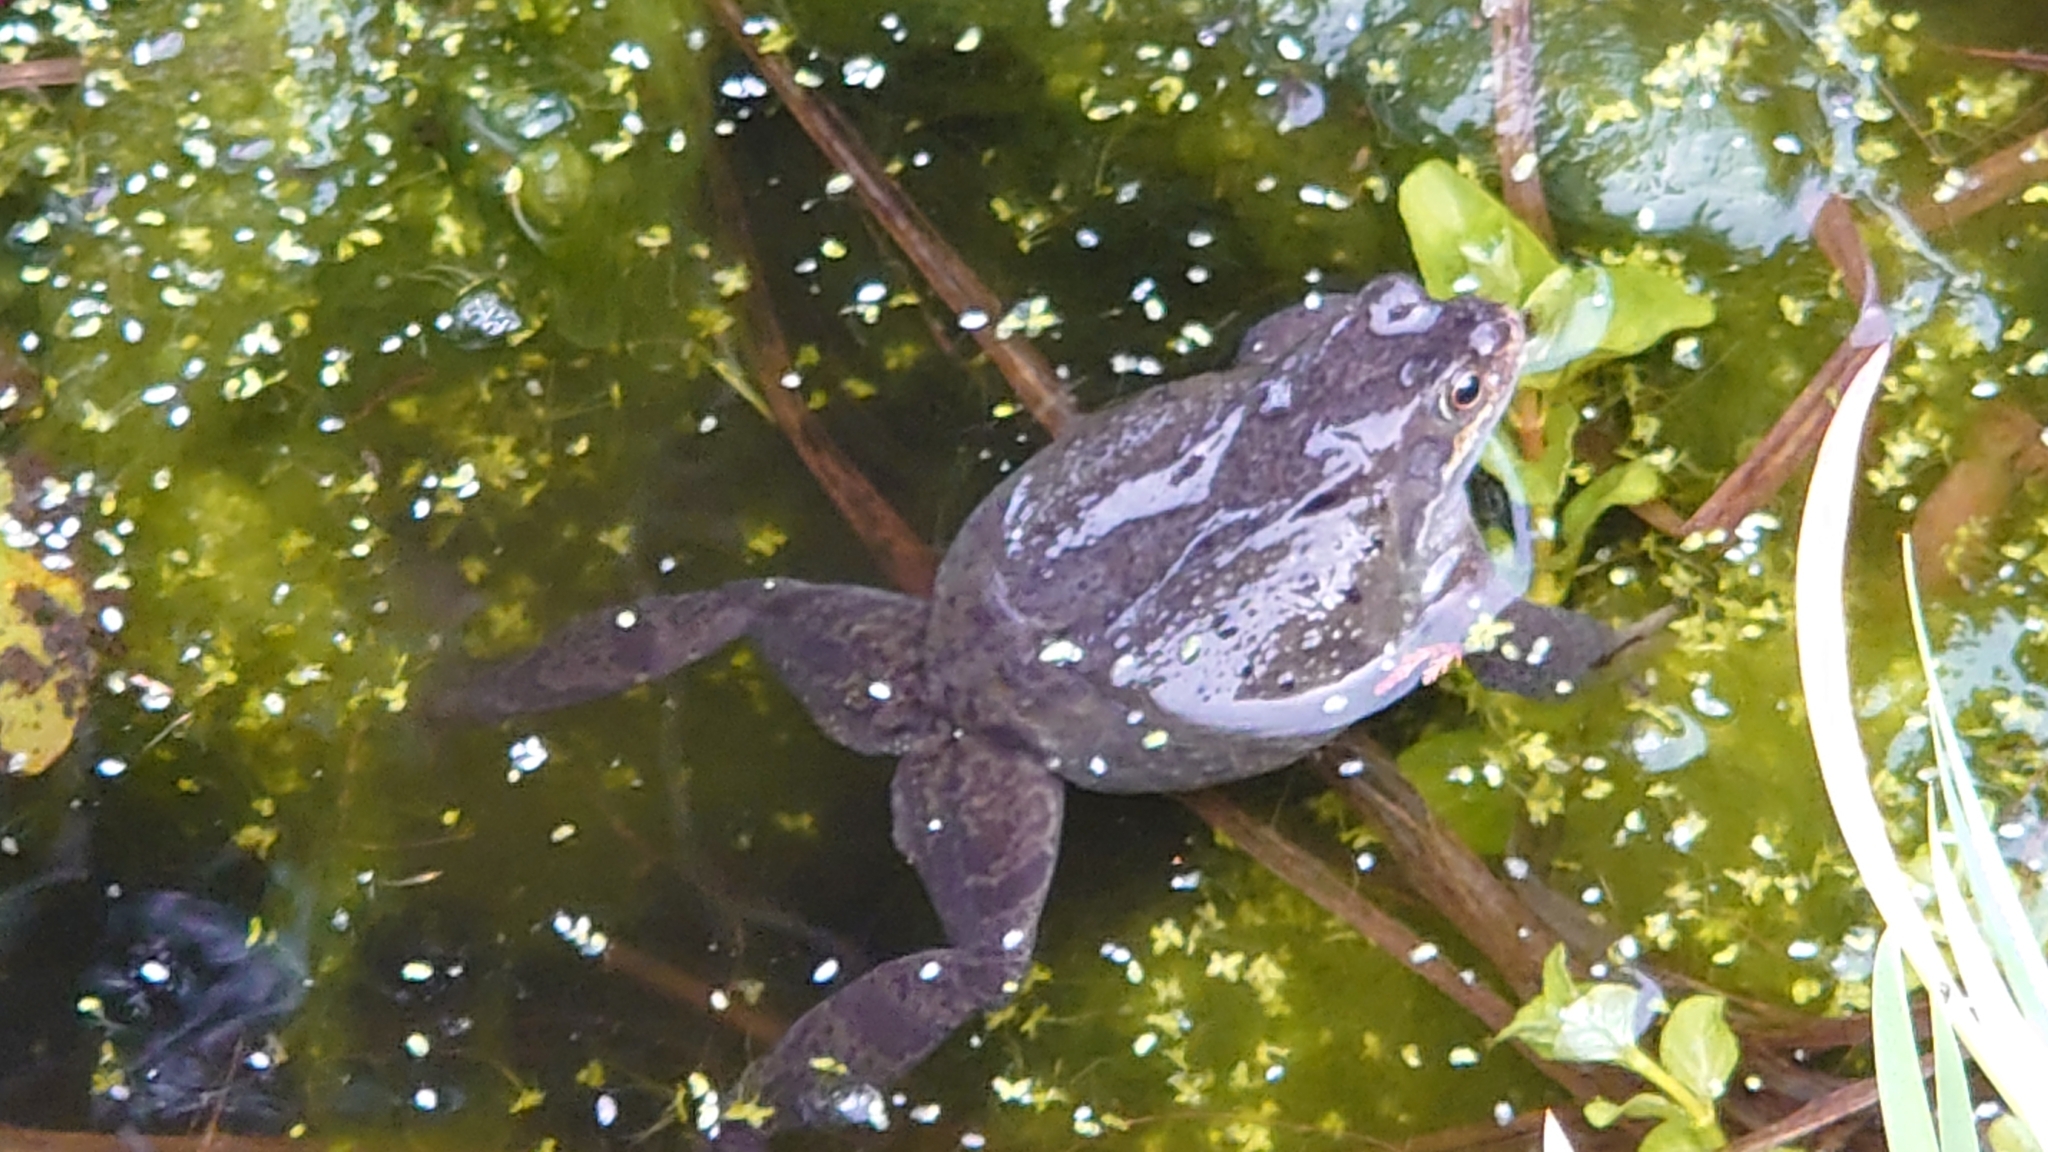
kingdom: Animalia
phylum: Chordata
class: Amphibia
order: Anura
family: Ranidae
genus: Rana
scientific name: Rana temporaria
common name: Common frog
